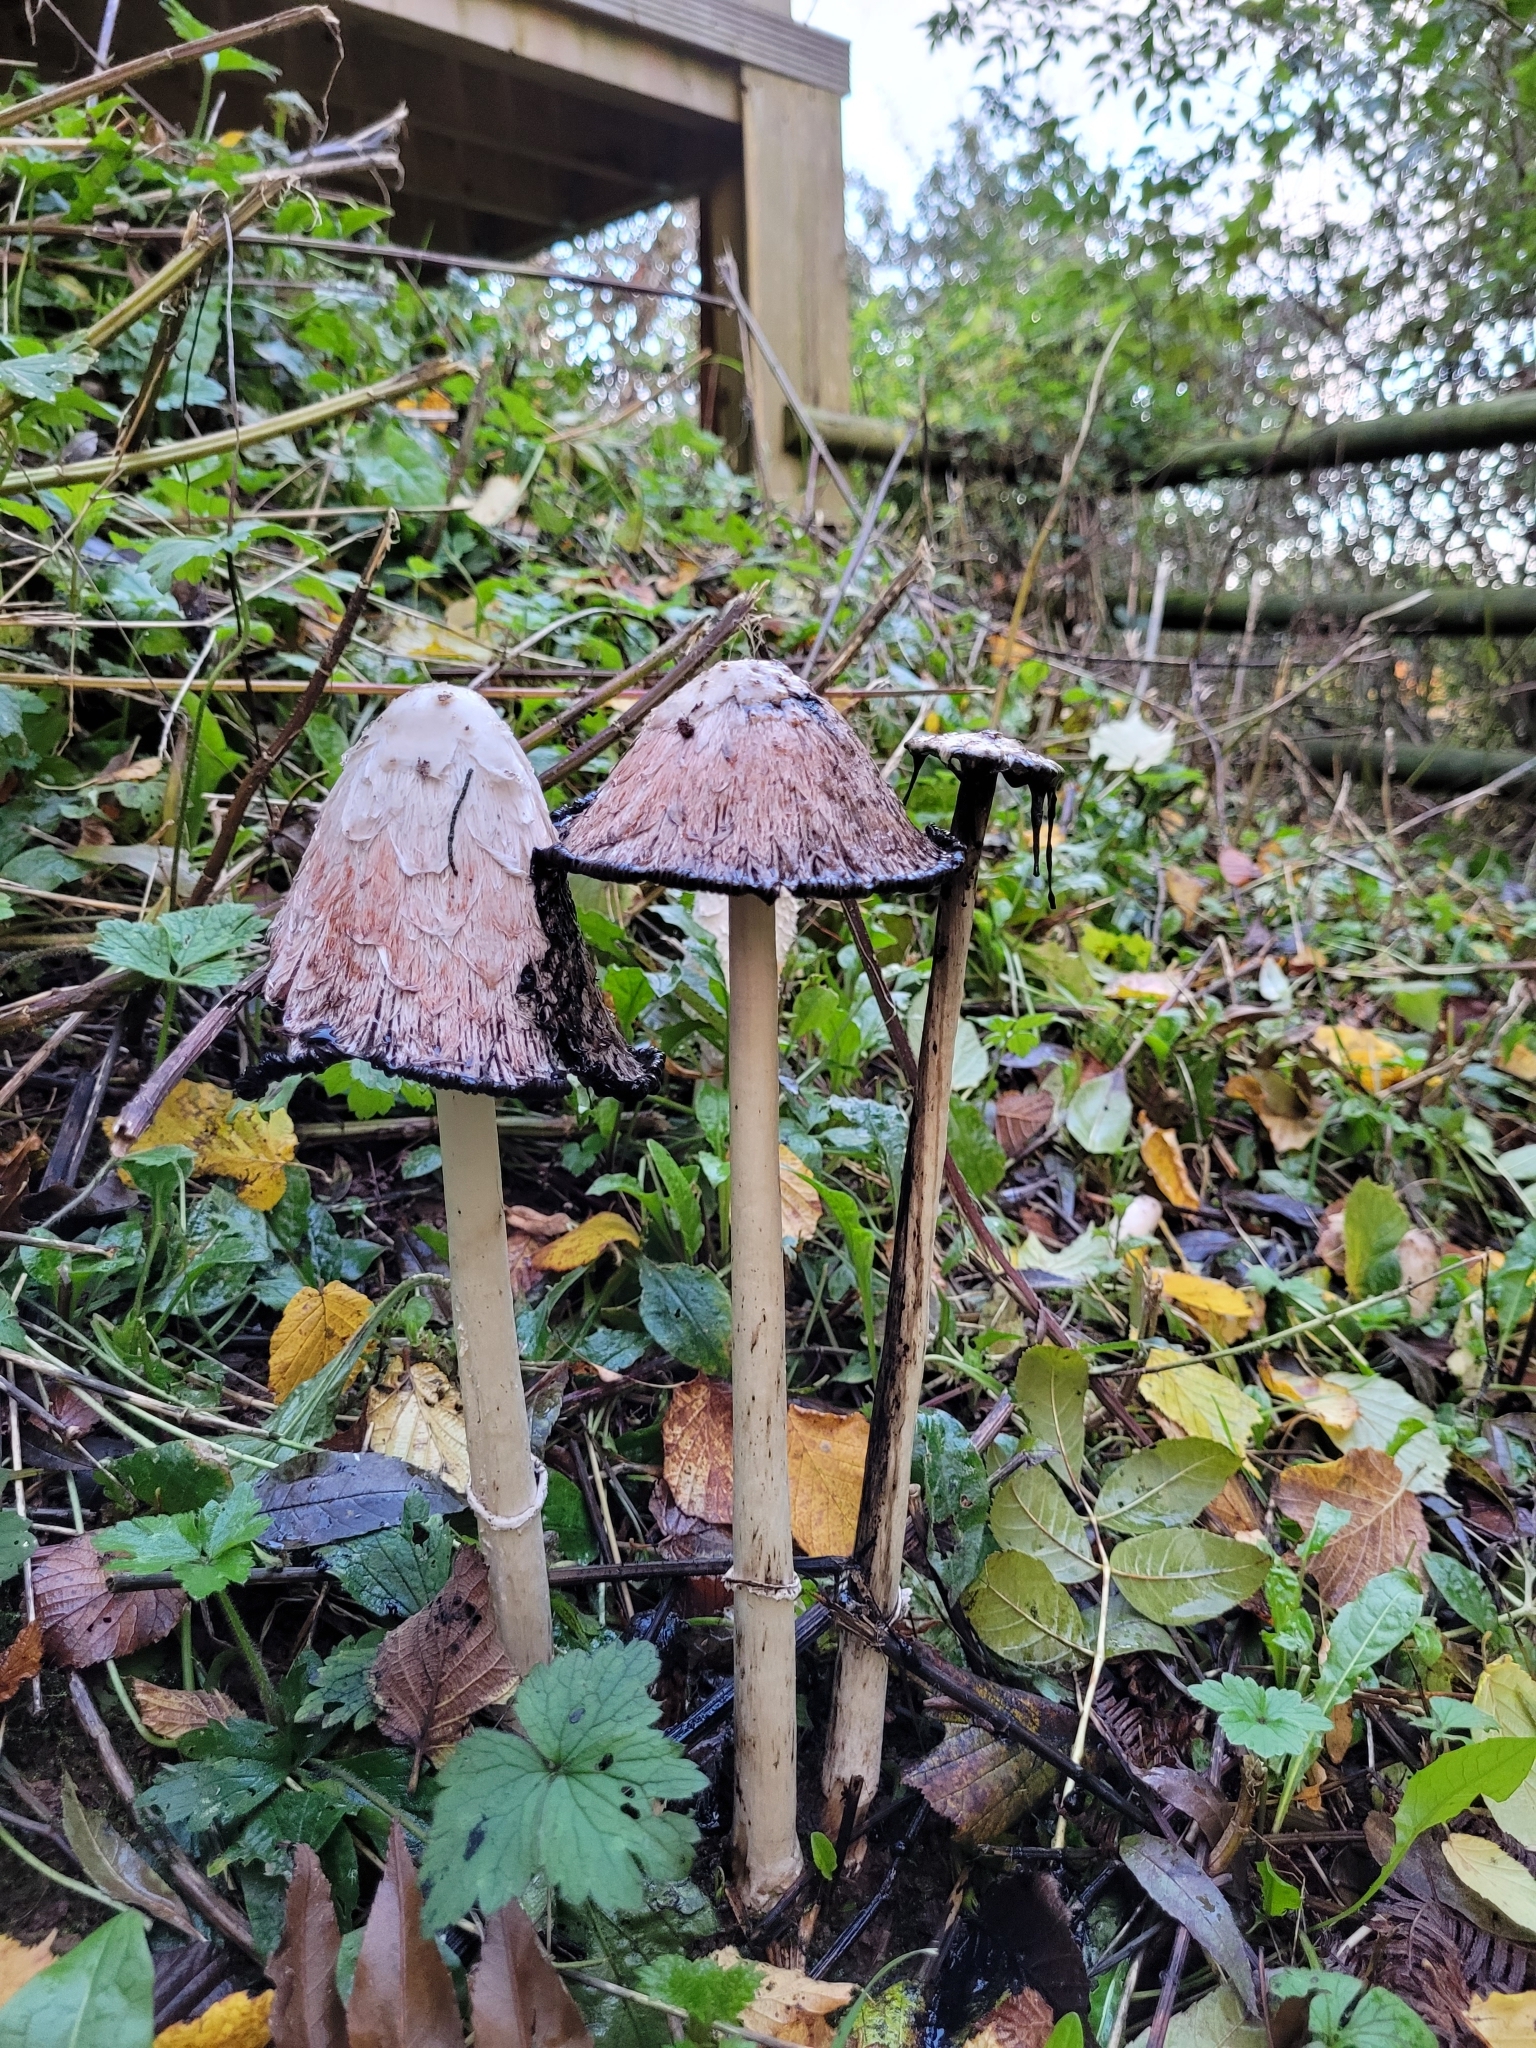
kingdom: Fungi
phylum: Basidiomycota
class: Agaricomycetes
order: Agaricales
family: Agaricaceae
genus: Coprinus
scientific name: Coprinus comatus
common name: Lawyer's wig
